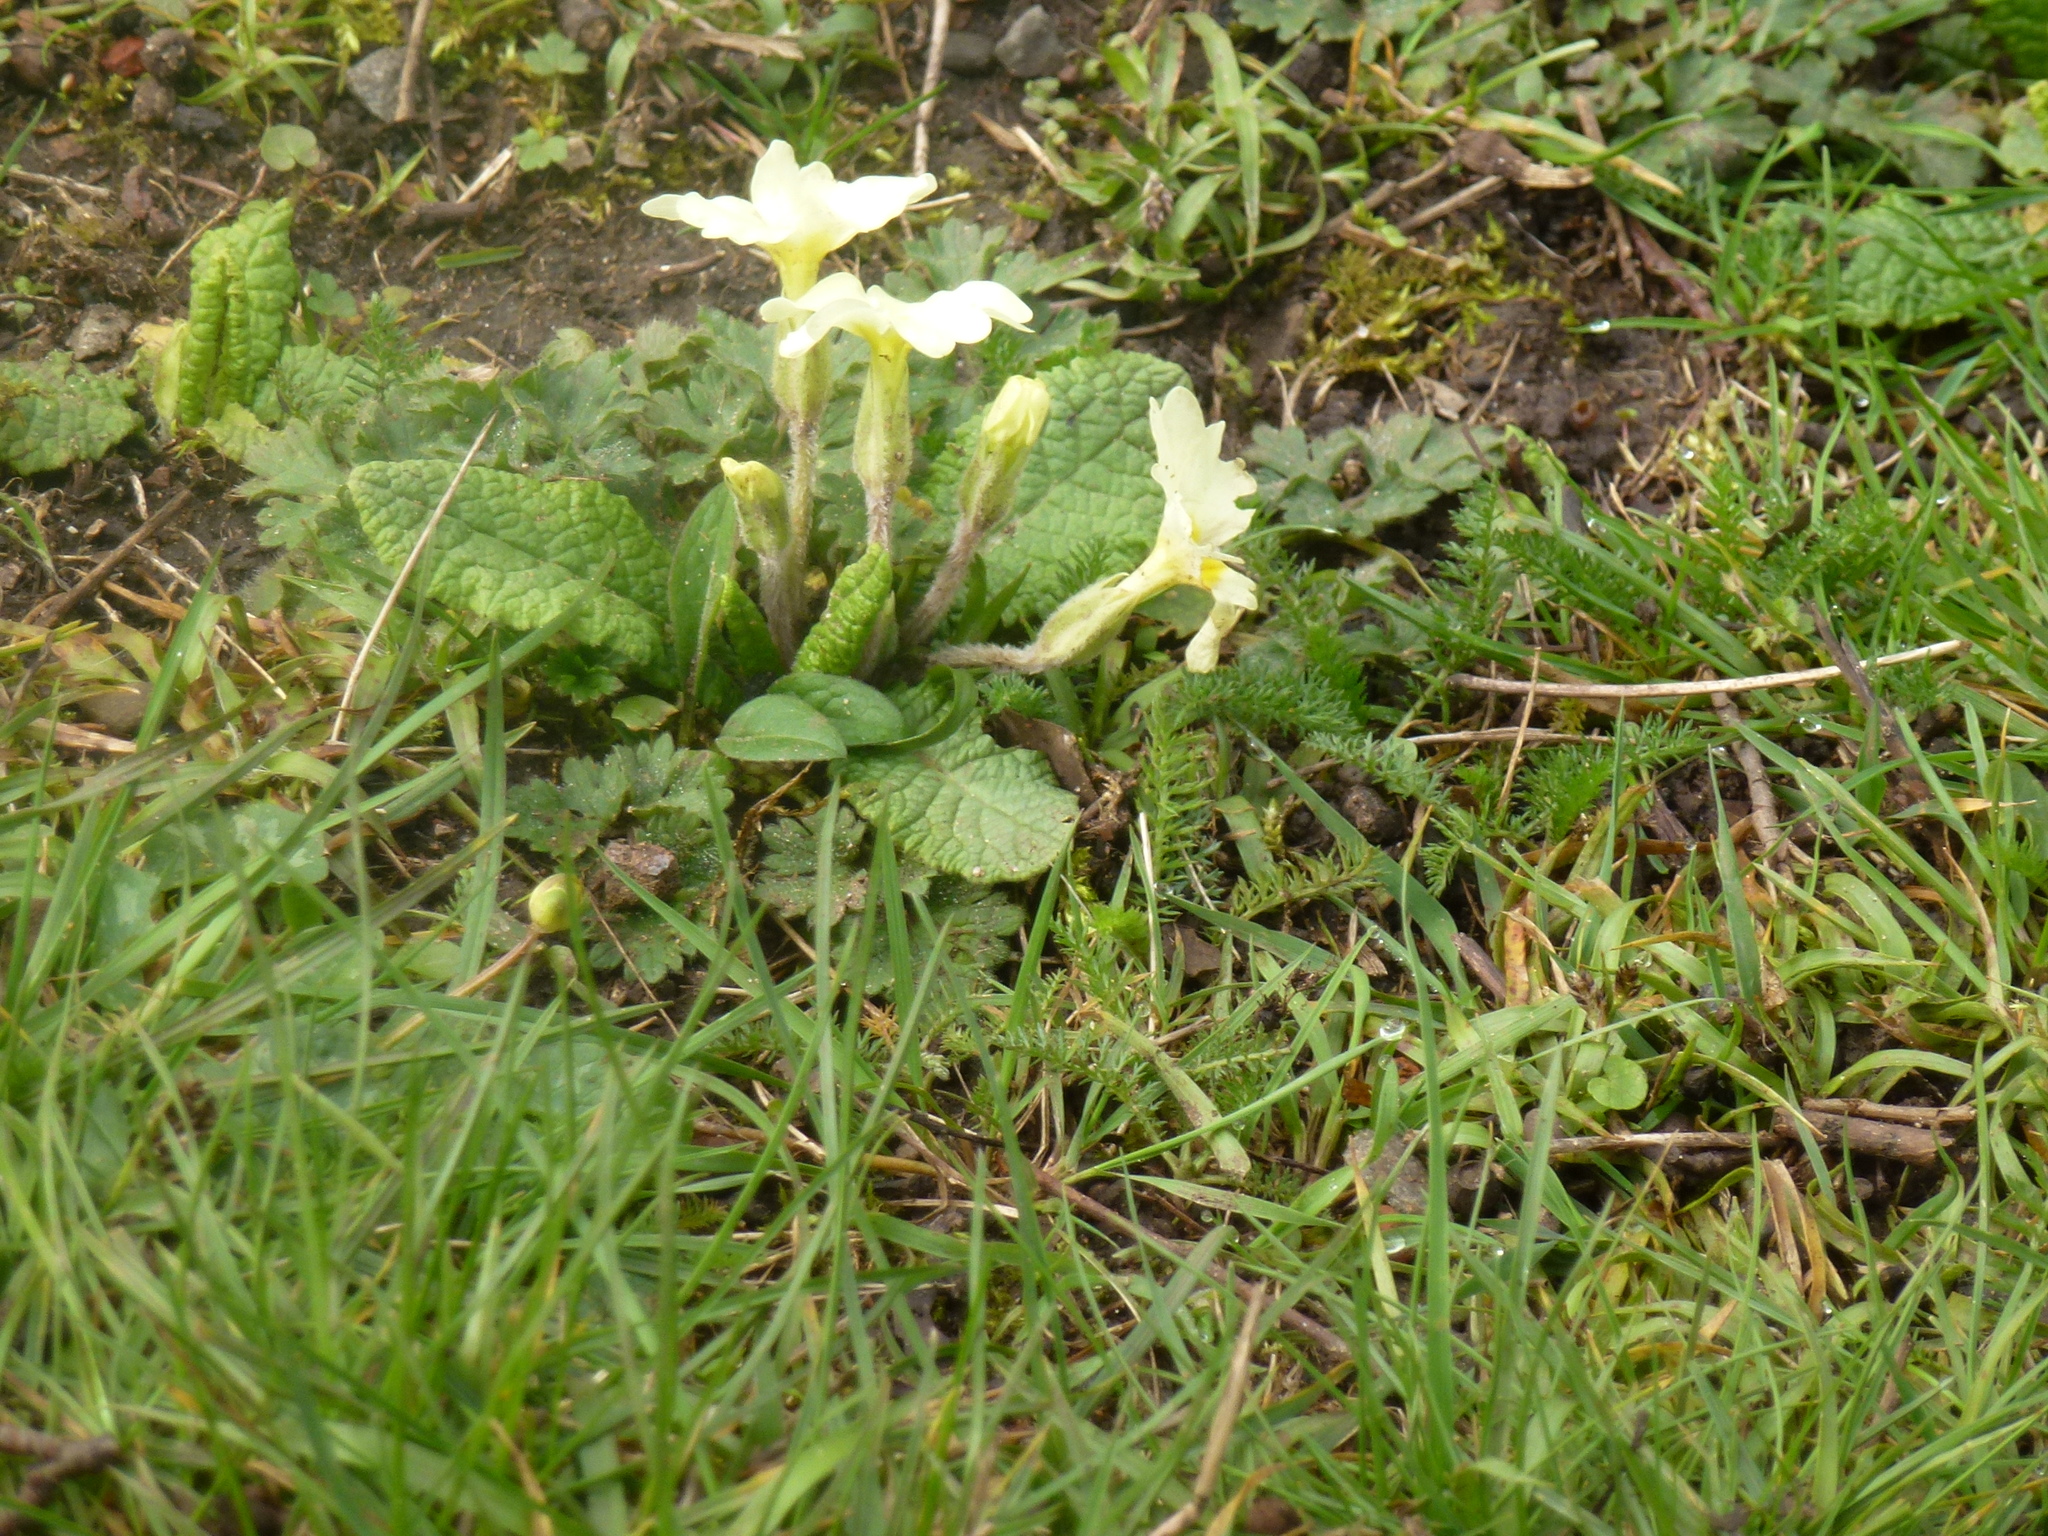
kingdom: Plantae
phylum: Tracheophyta
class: Magnoliopsida
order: Ericales
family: Primulaceae
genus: Primula
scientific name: Primula vulgaris
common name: Primrose
